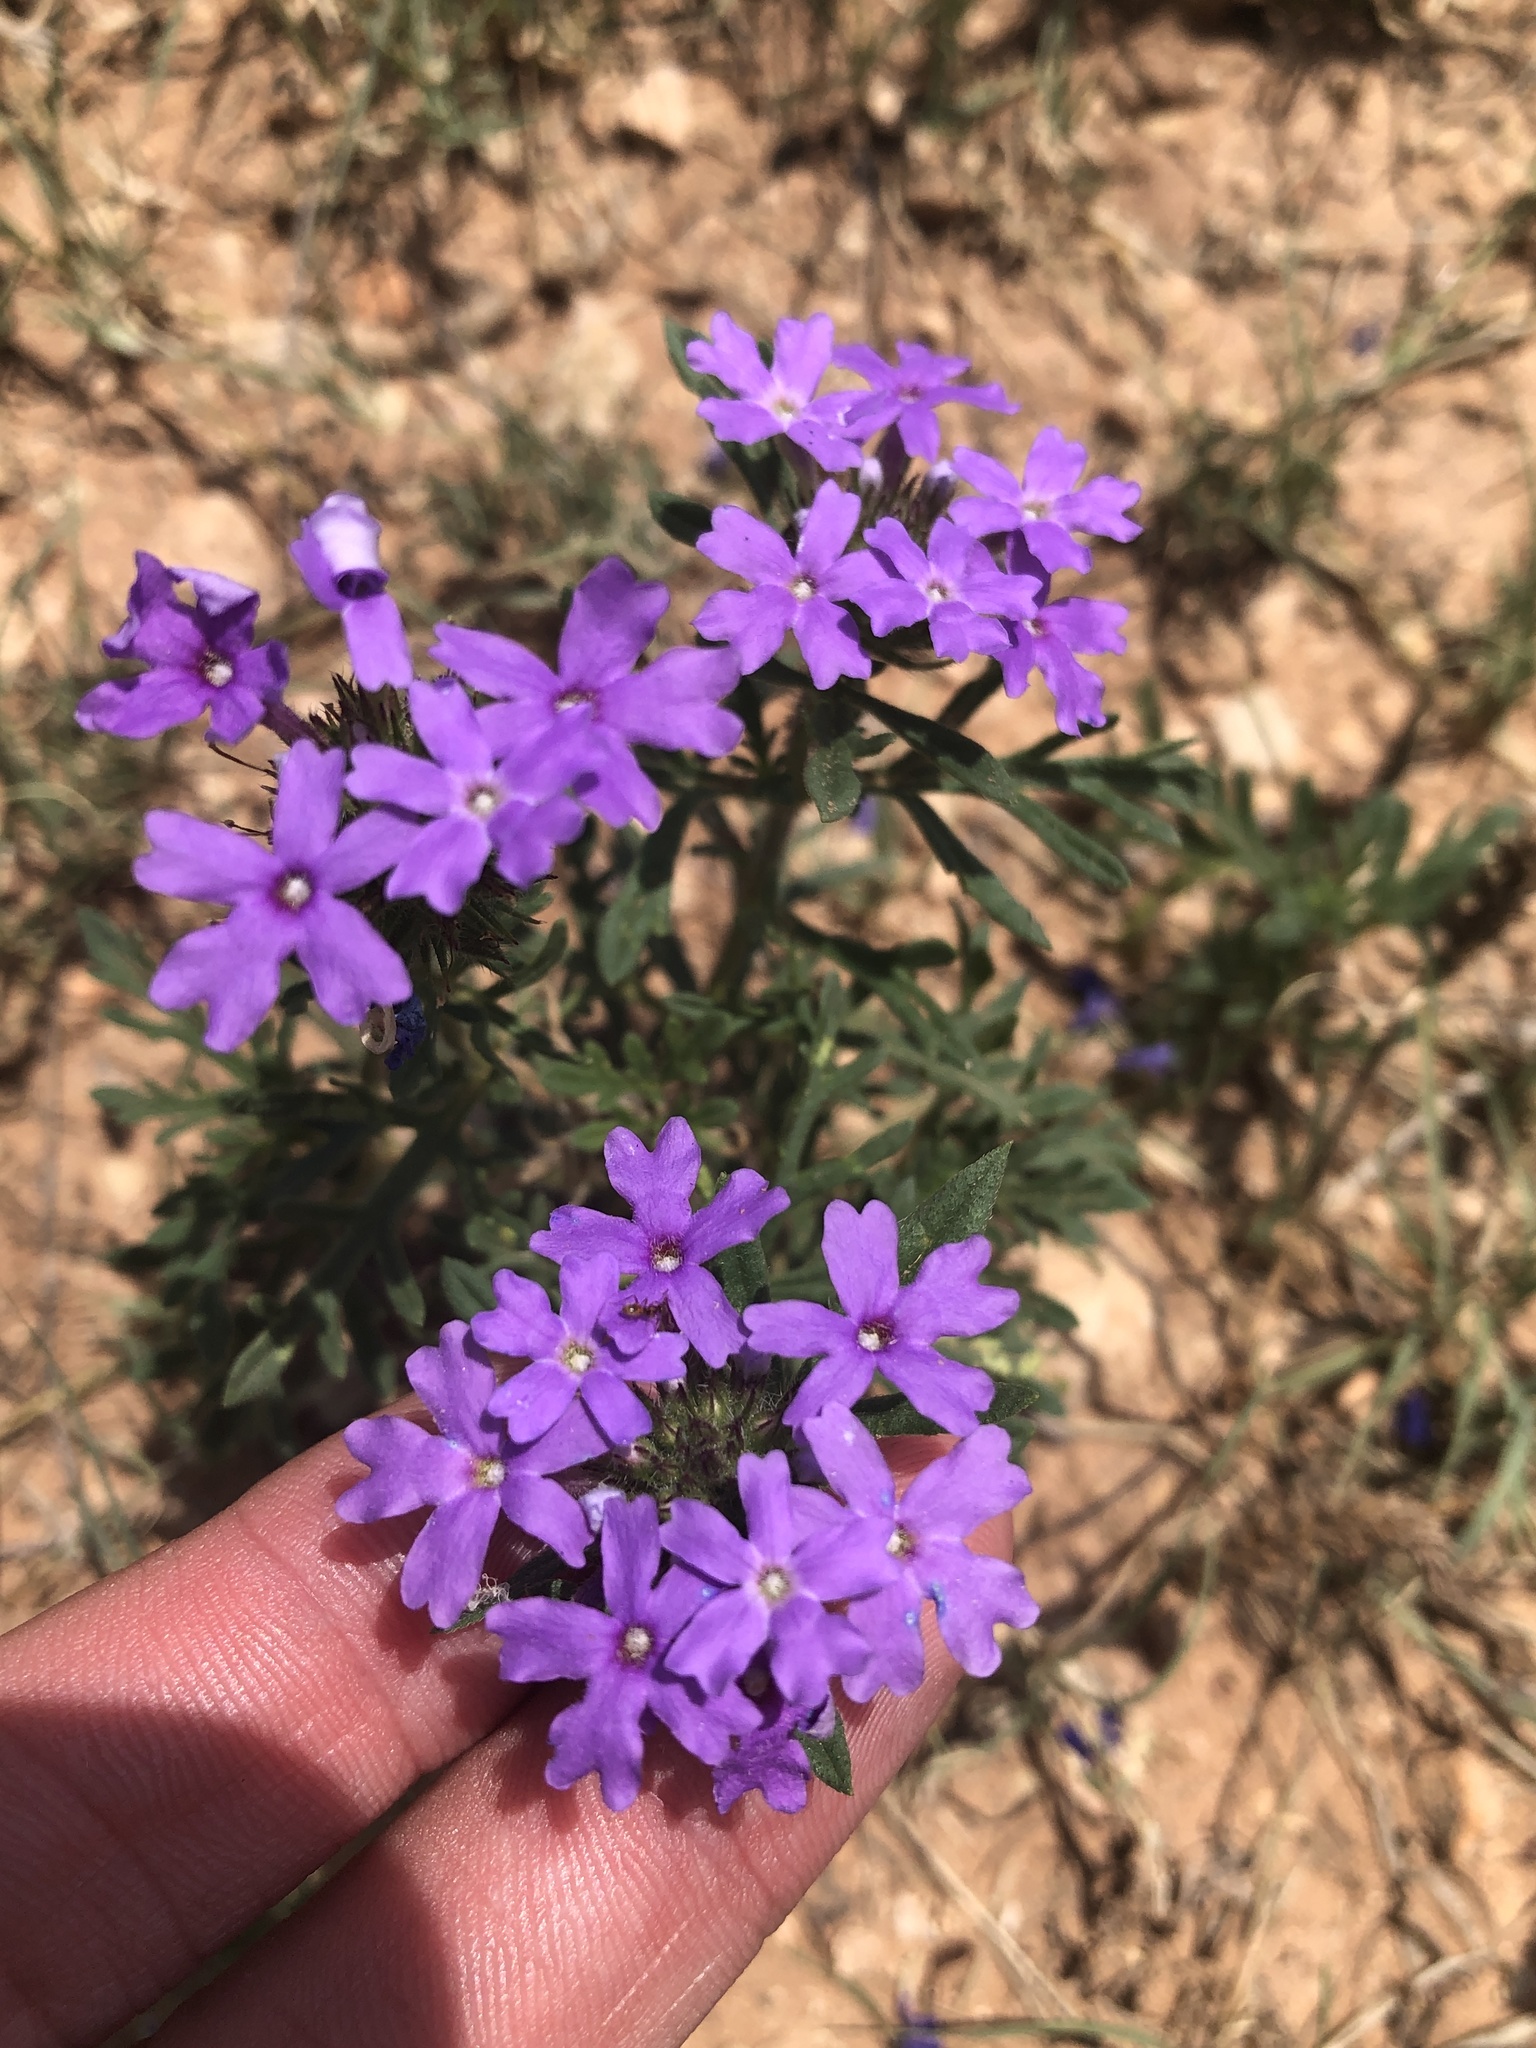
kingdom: Plantae
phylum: Tracheophyta
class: Magnoliopsida
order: Lamiales
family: Verbenaceae
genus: Verbena
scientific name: Verbena bipinnatifida
